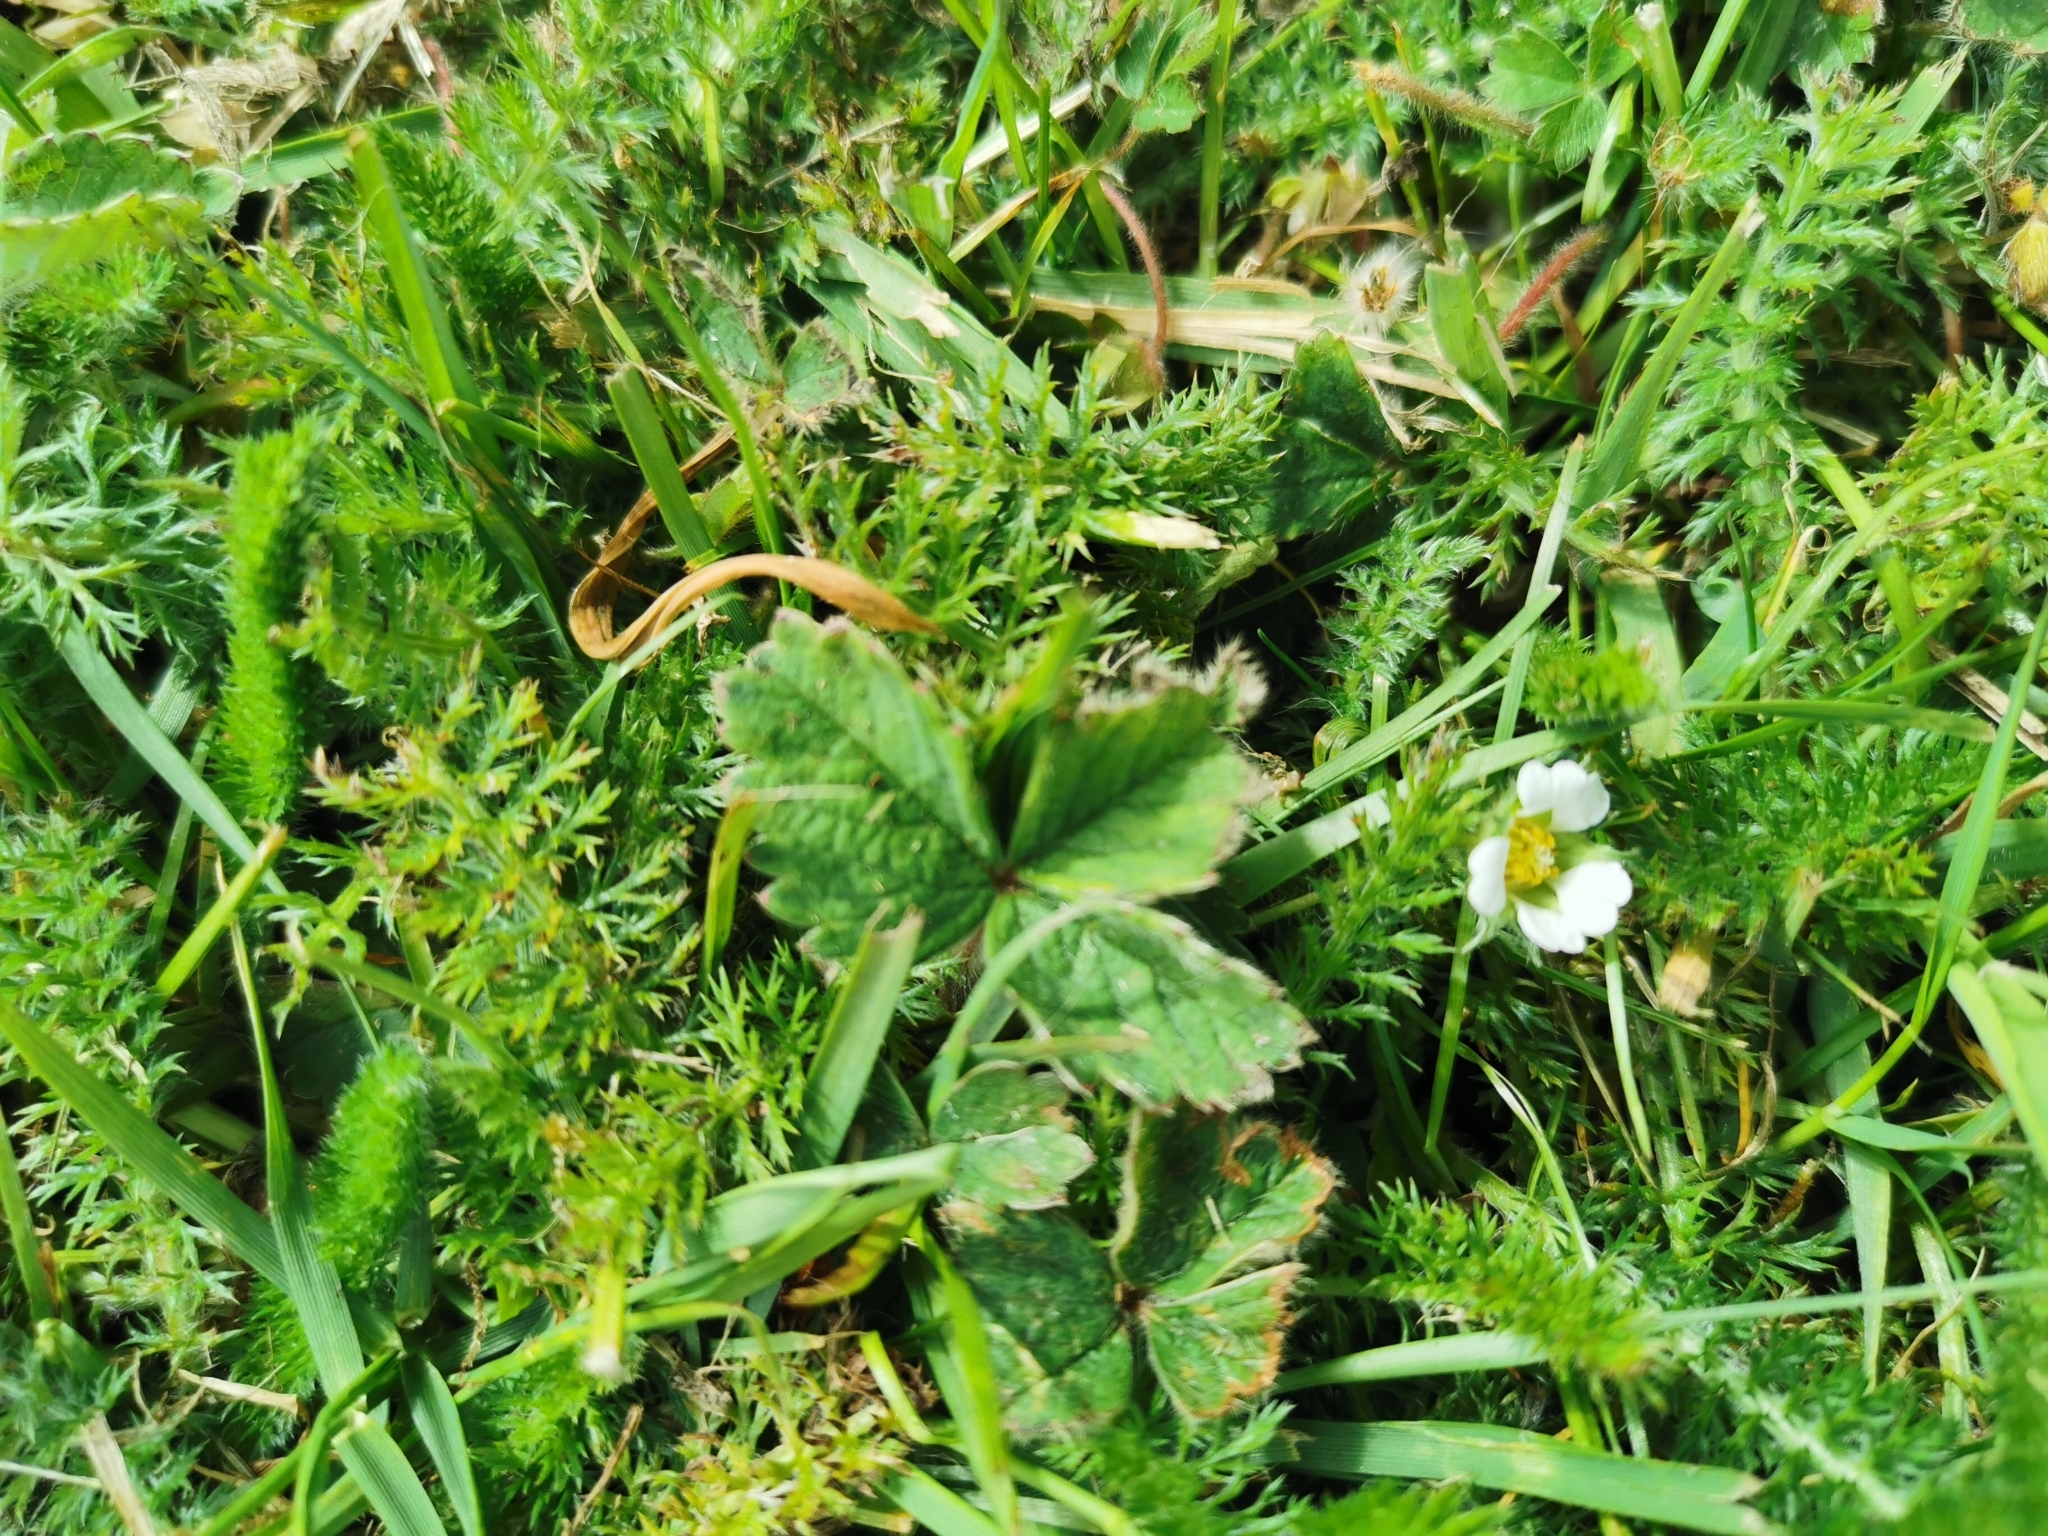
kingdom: Plantae
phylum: Tracheophyta
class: Magnoliopsida
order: Rosales
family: Rosaceae
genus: Potentilla
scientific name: Potentilla sterilis
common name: Barren strawberry
